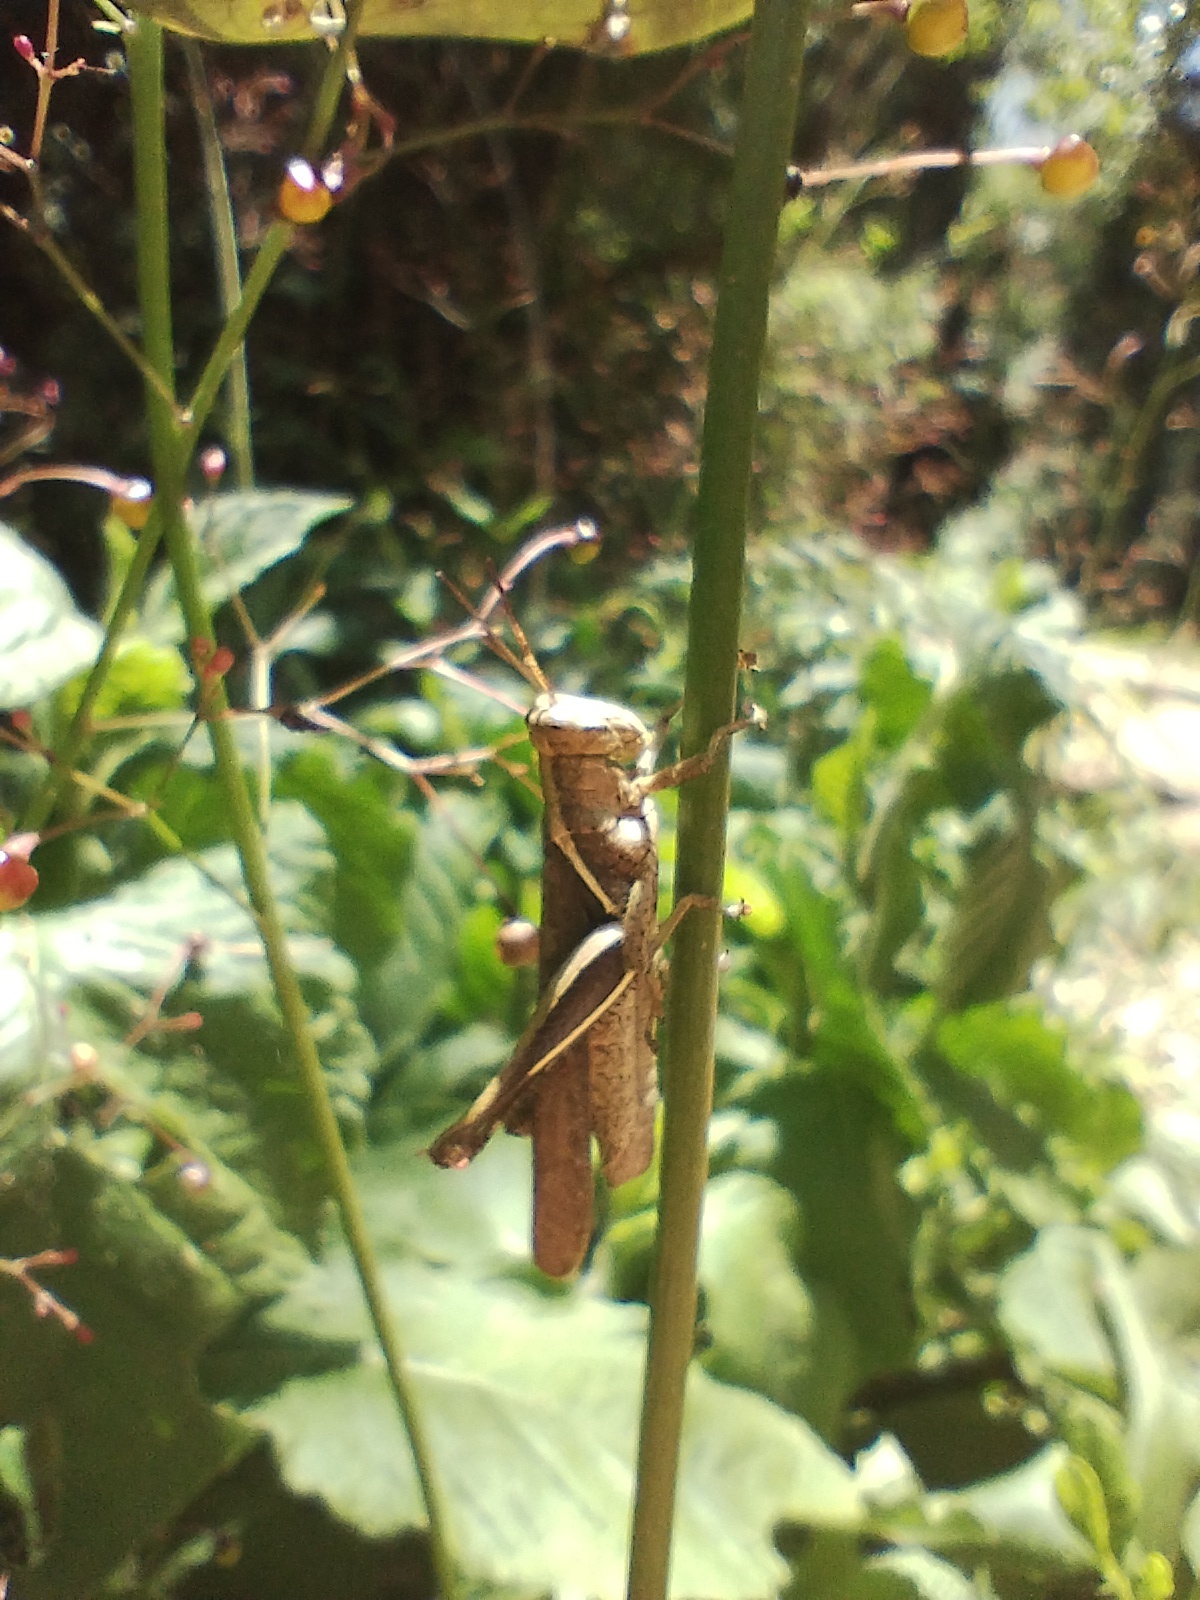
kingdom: Animalia
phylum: Arthropoda
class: Insecta
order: Orthoptera
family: Acrididae
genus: Abracris
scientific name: Abracris flavolineata
